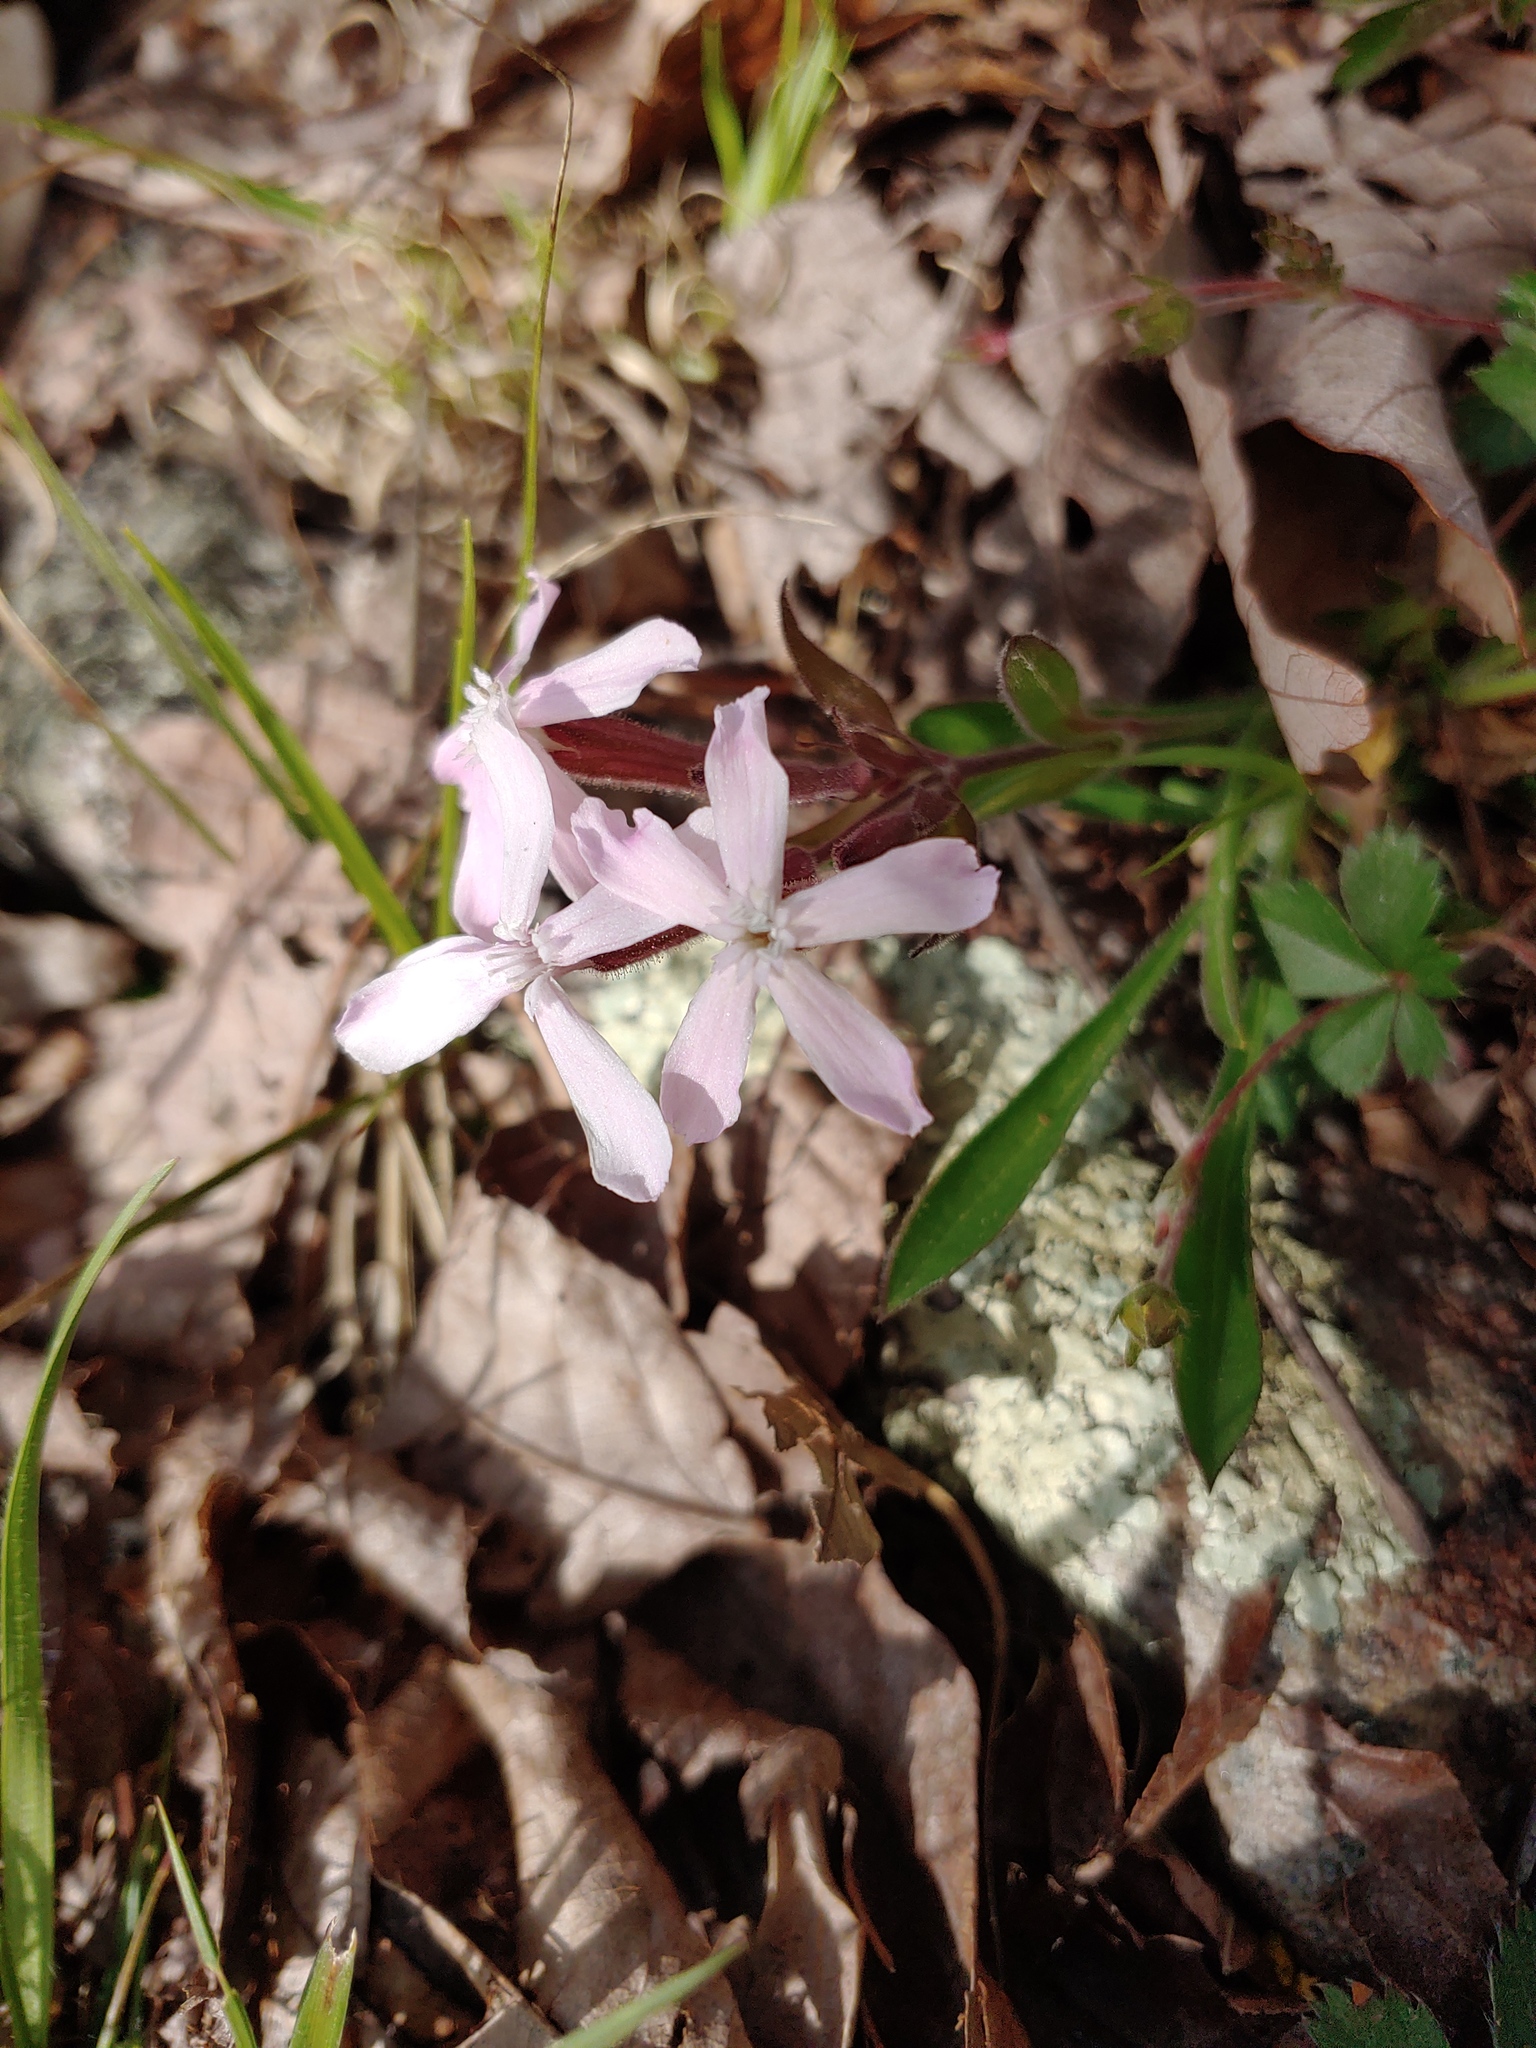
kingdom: Plantae
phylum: Tracheophyta
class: Magnoliopsida
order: Caryophyllales
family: Caryophyllaceae
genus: Silene
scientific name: Silene caroliniana
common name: Sticky catchfly
